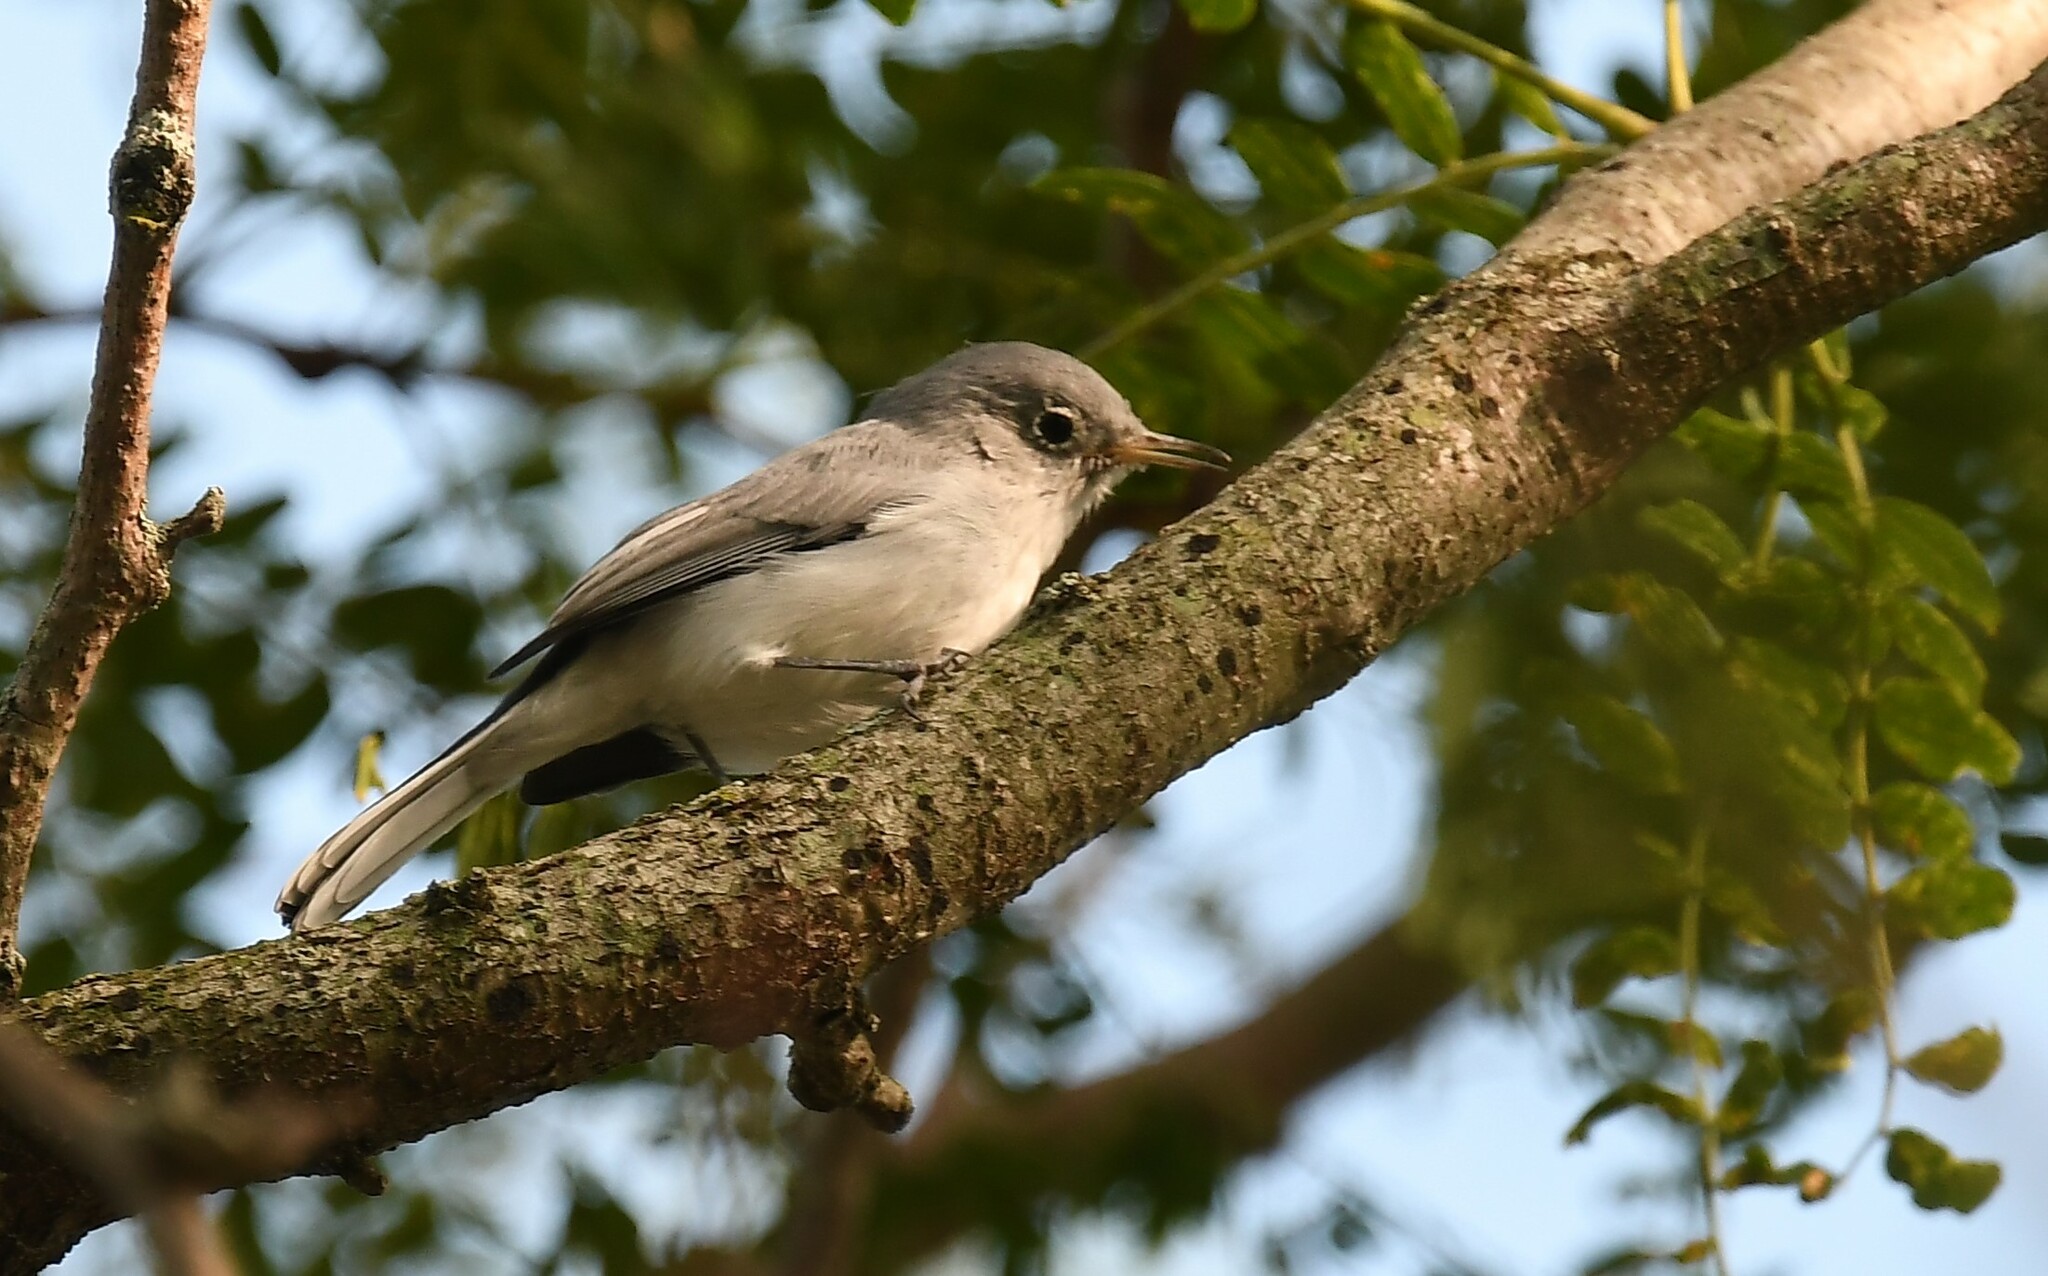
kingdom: Animalia
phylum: Chordata
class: Aves
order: Passeriformes
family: Polioptilidae
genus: Polioptila
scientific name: Polioptila caerulea
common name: Blue-gray gnatcatcher
